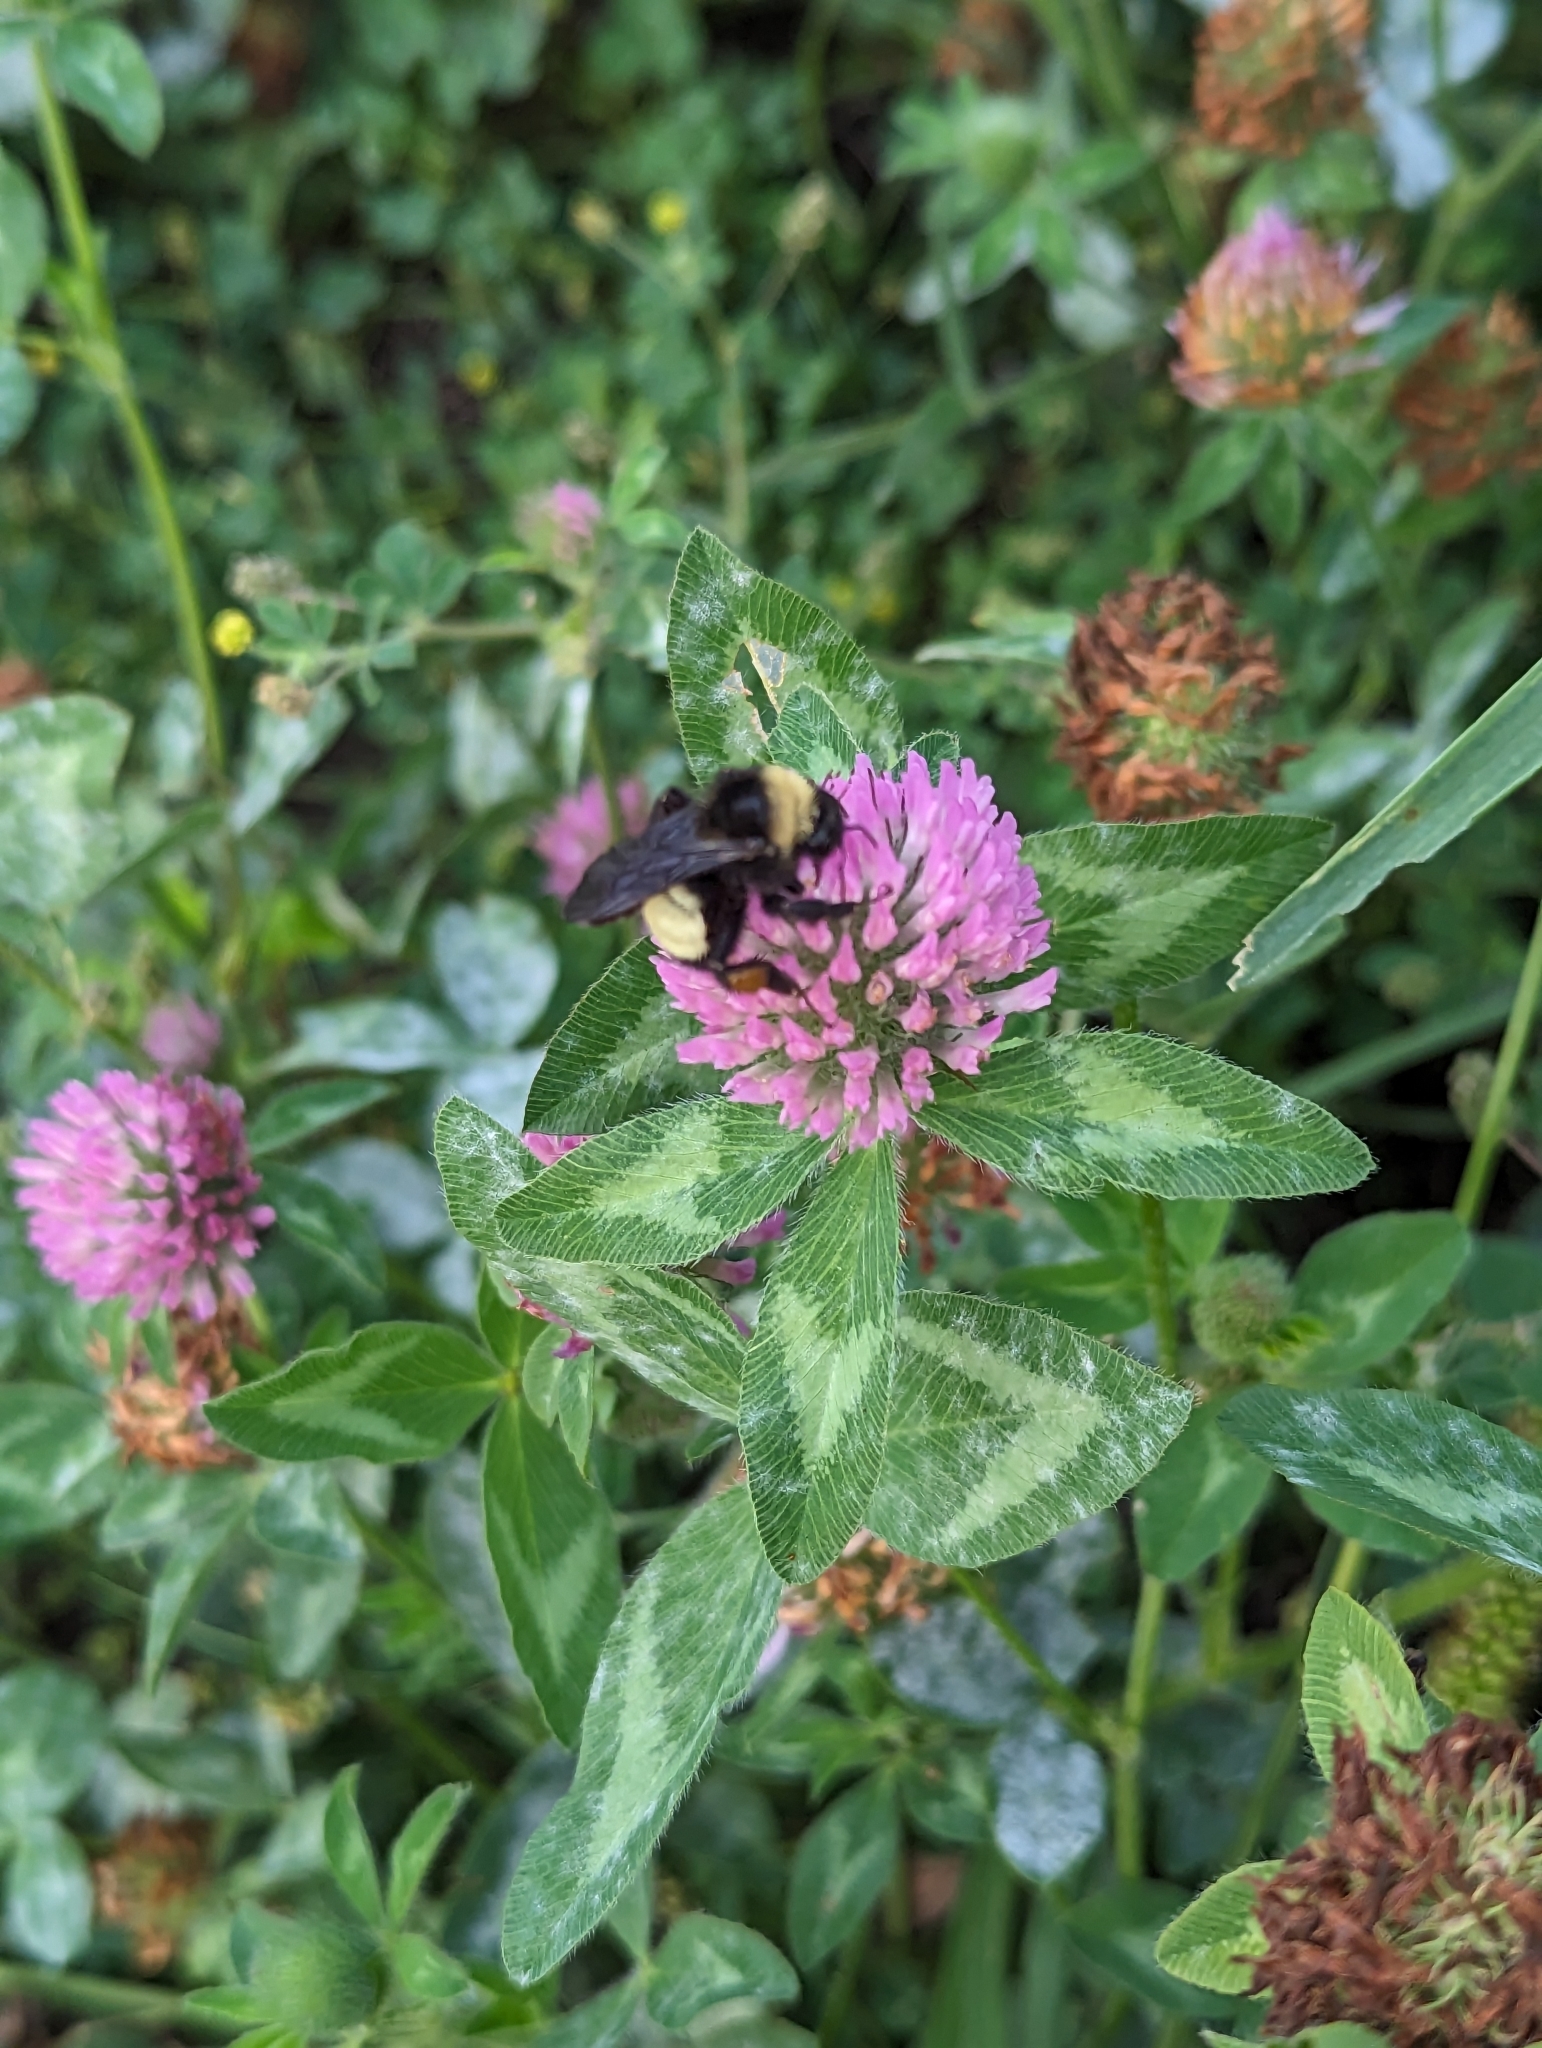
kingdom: Animalia
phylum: Arthropoda
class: Insecta
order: Hymenoptera
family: Apidae
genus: Bombus
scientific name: Bombus pensylvanicus
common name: Bumble bee
